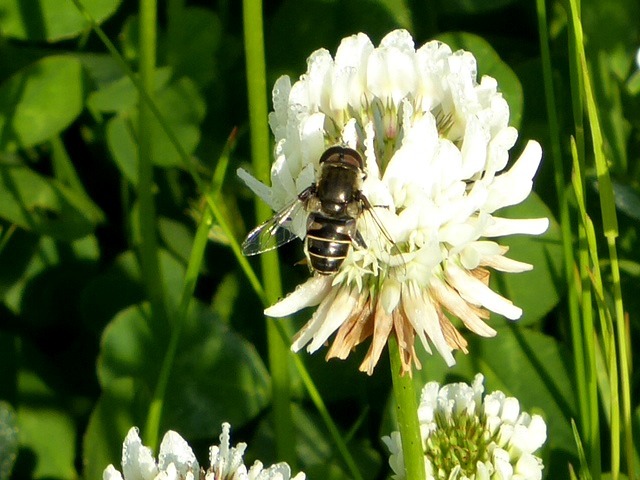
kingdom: Animalia
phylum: Arthropoda
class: Insecta
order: Diptera
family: Syrphidae
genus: Eristalis
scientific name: Eristalis dimidiata
